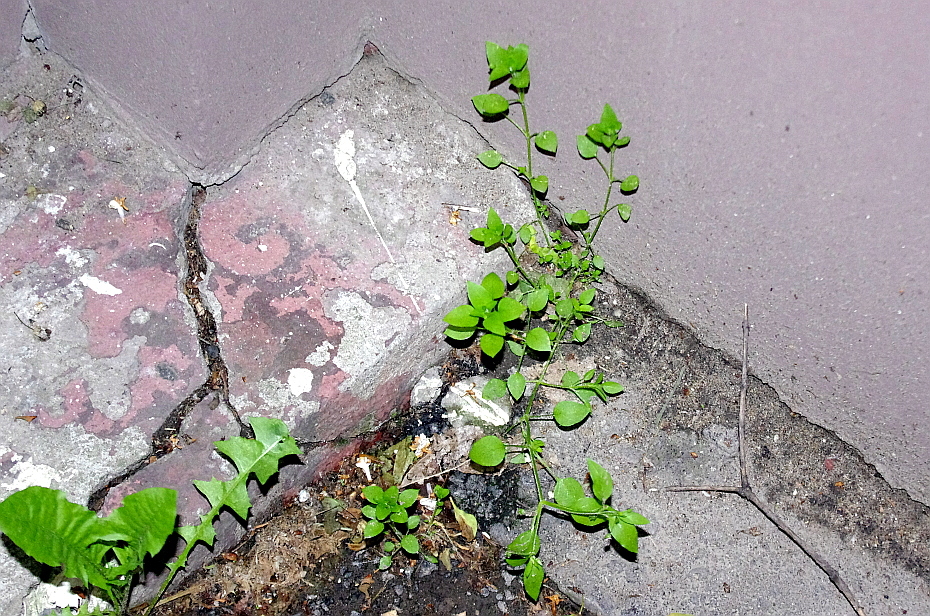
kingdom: Plantae
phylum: Tracheophyta
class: Magnoliopsida
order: Caryophyllales
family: Caryophyllaceae
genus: Stellaria
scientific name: Stellaria media
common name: Common chickweed
